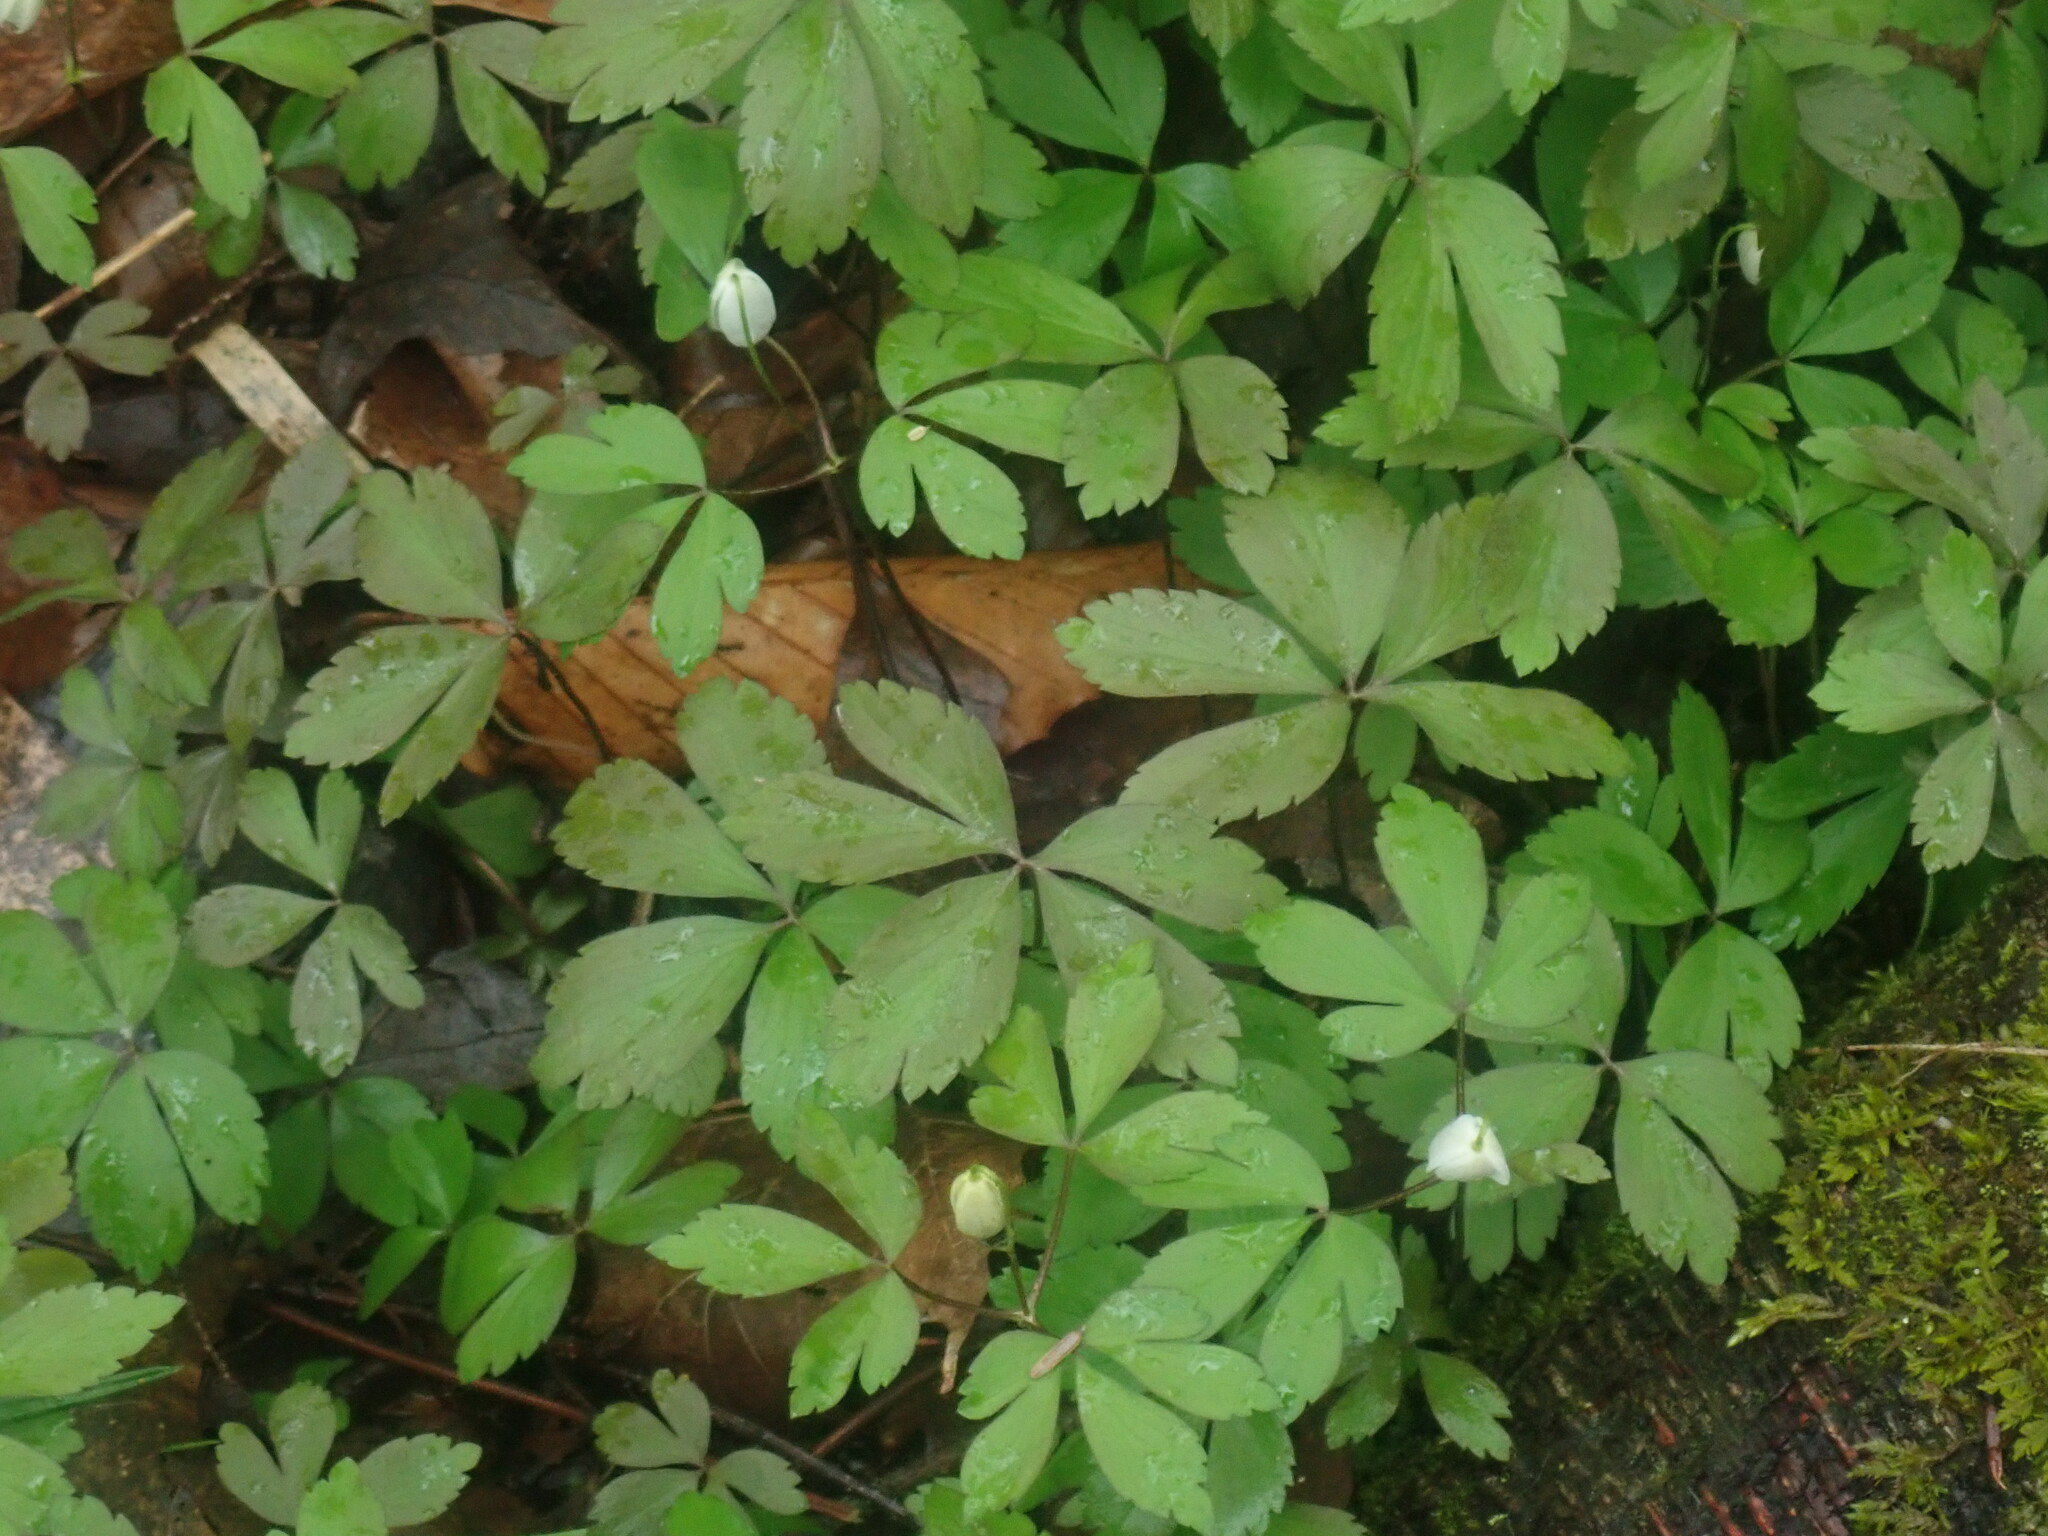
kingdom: Plantae
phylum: Tracheophyta
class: Magnoliopsida
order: Ranunculales
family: Ranunculaceae
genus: Anemone
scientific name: Anemone quinquefolia
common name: Wood anemone
